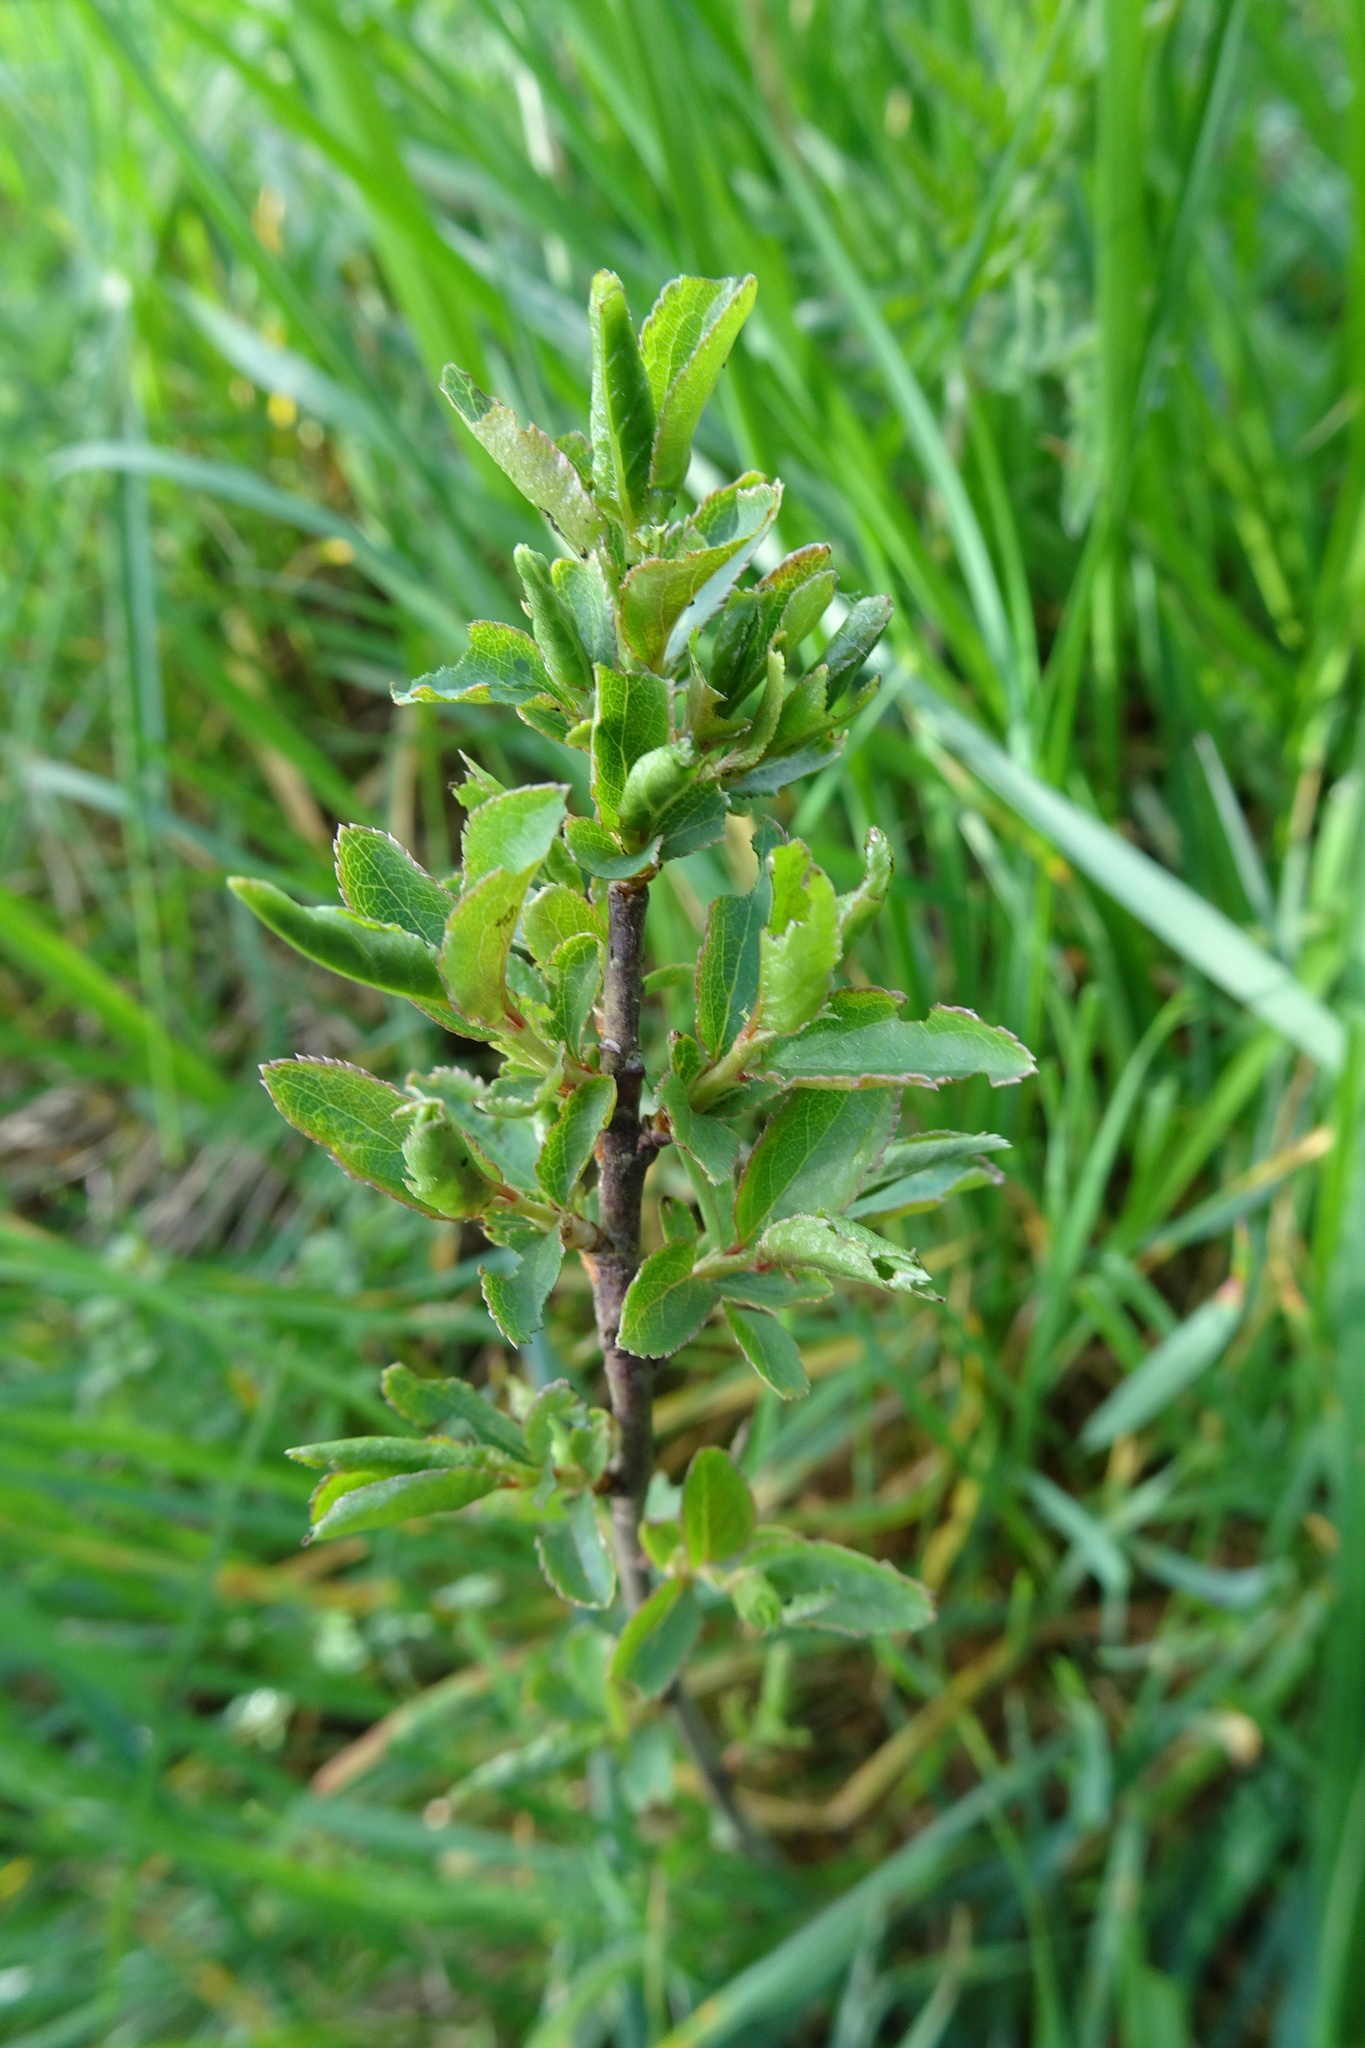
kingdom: Plantae
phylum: Tracheophyta
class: Magnoliopsida
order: Rosales
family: Rosaceae
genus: Prunus
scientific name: Prunus spinosa
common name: Blackthorn
